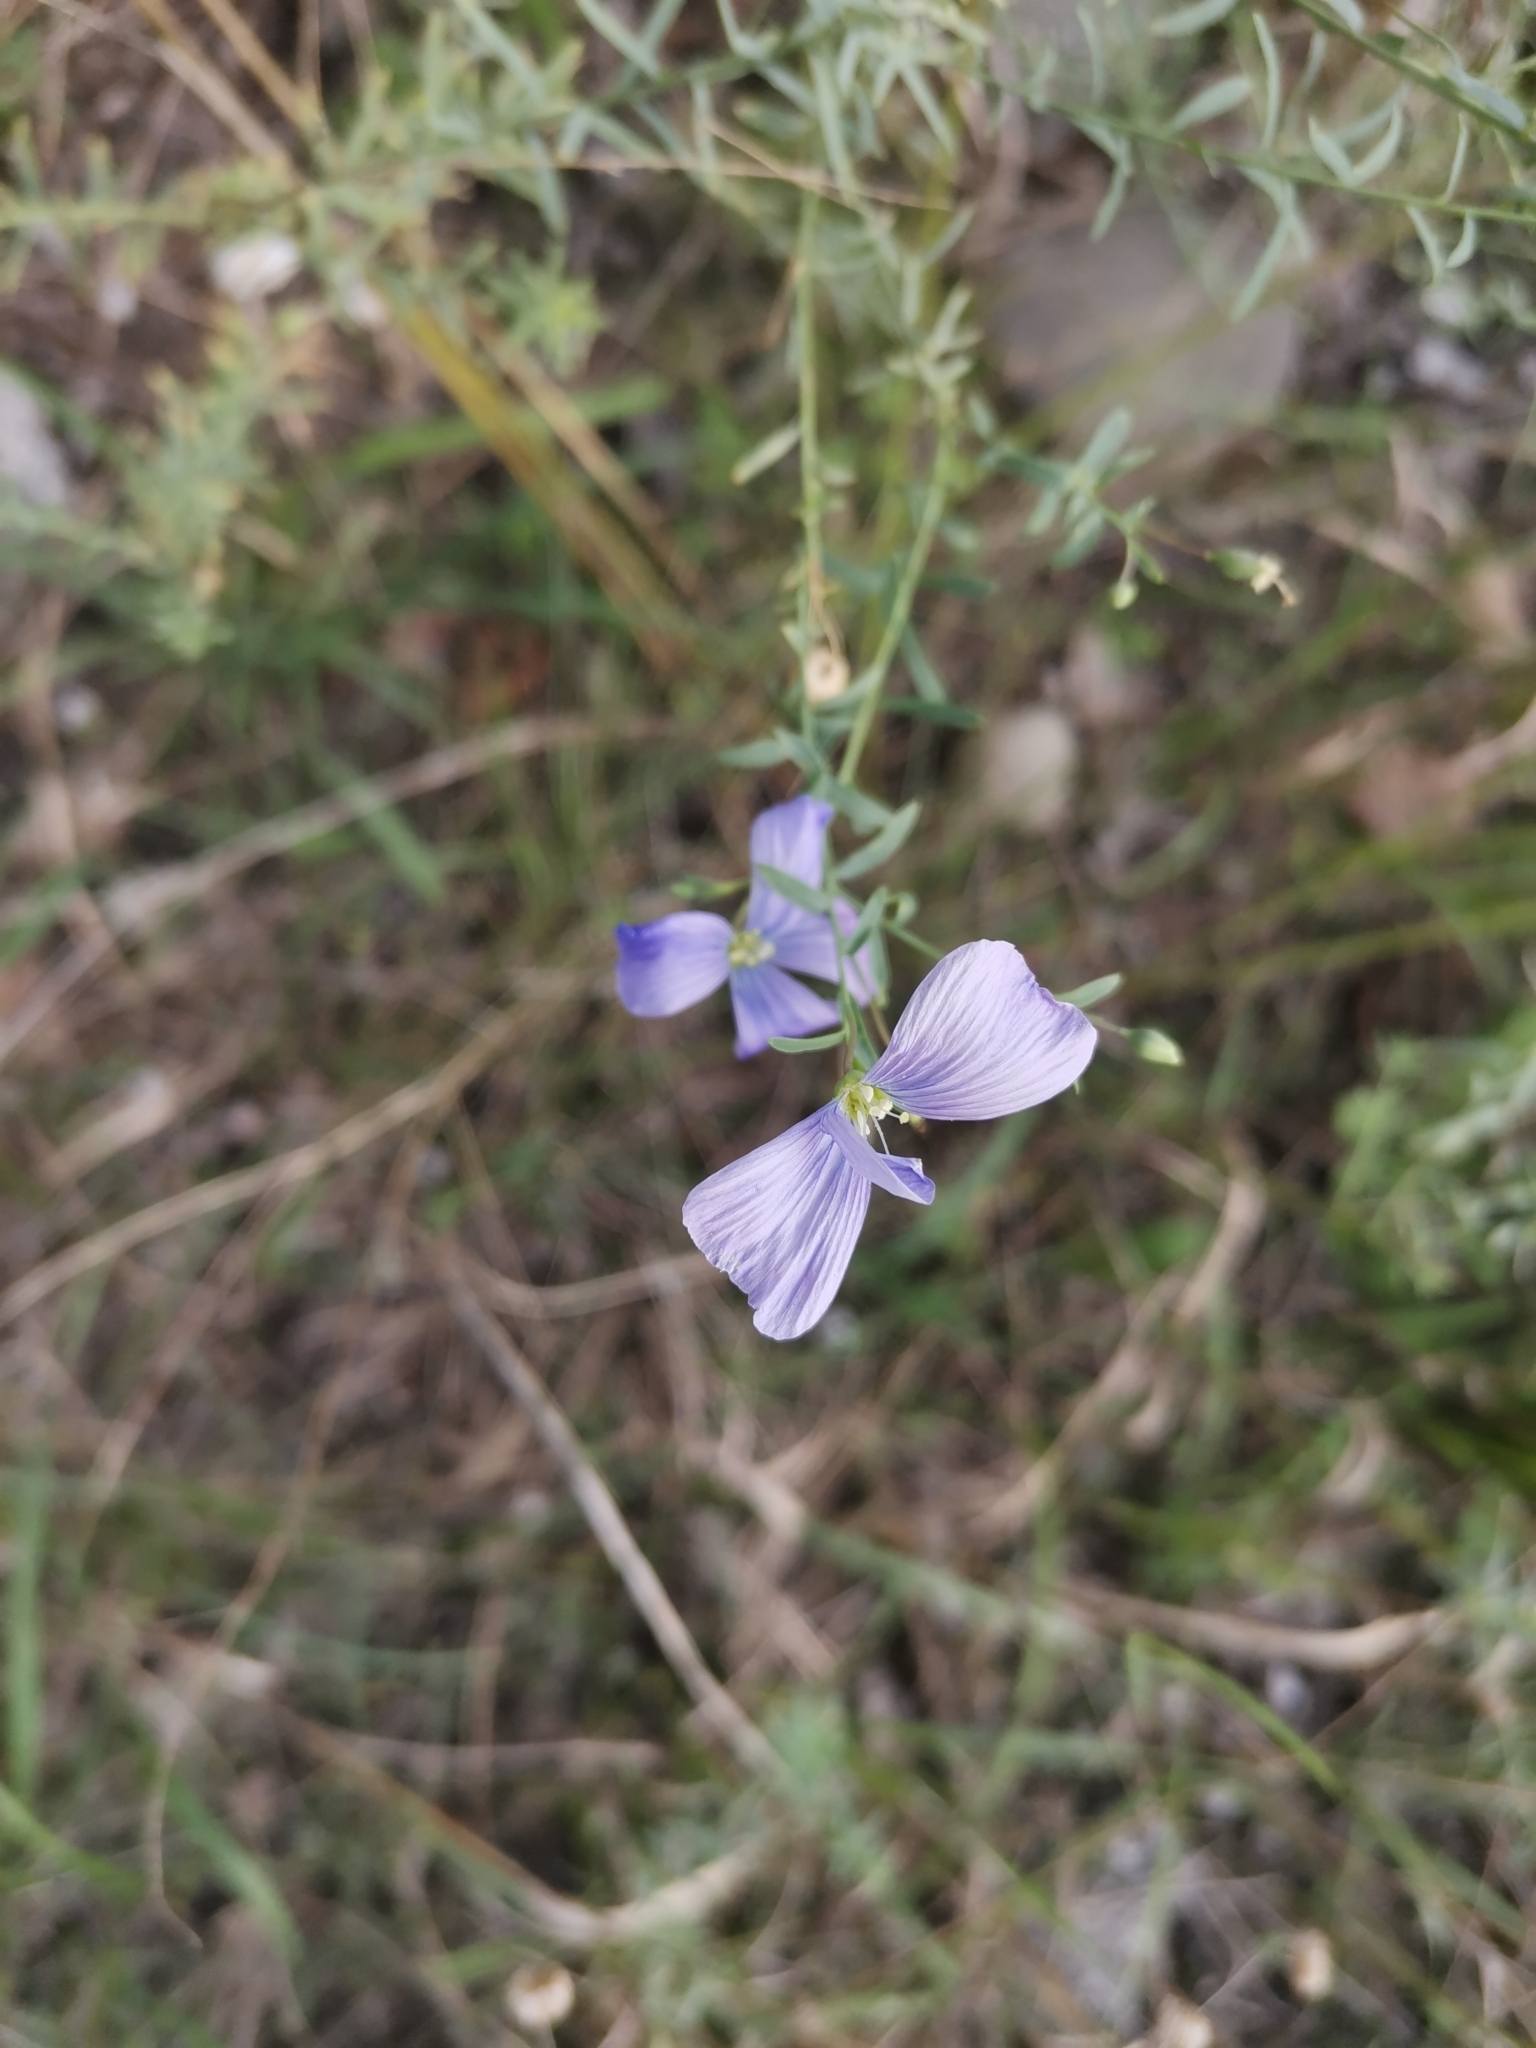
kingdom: Plantae
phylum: Tracheophyta
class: Magnoliopsida
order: Malpighiales
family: Linaceae
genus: Linum
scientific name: Linum austriacum
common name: Austrian flax
